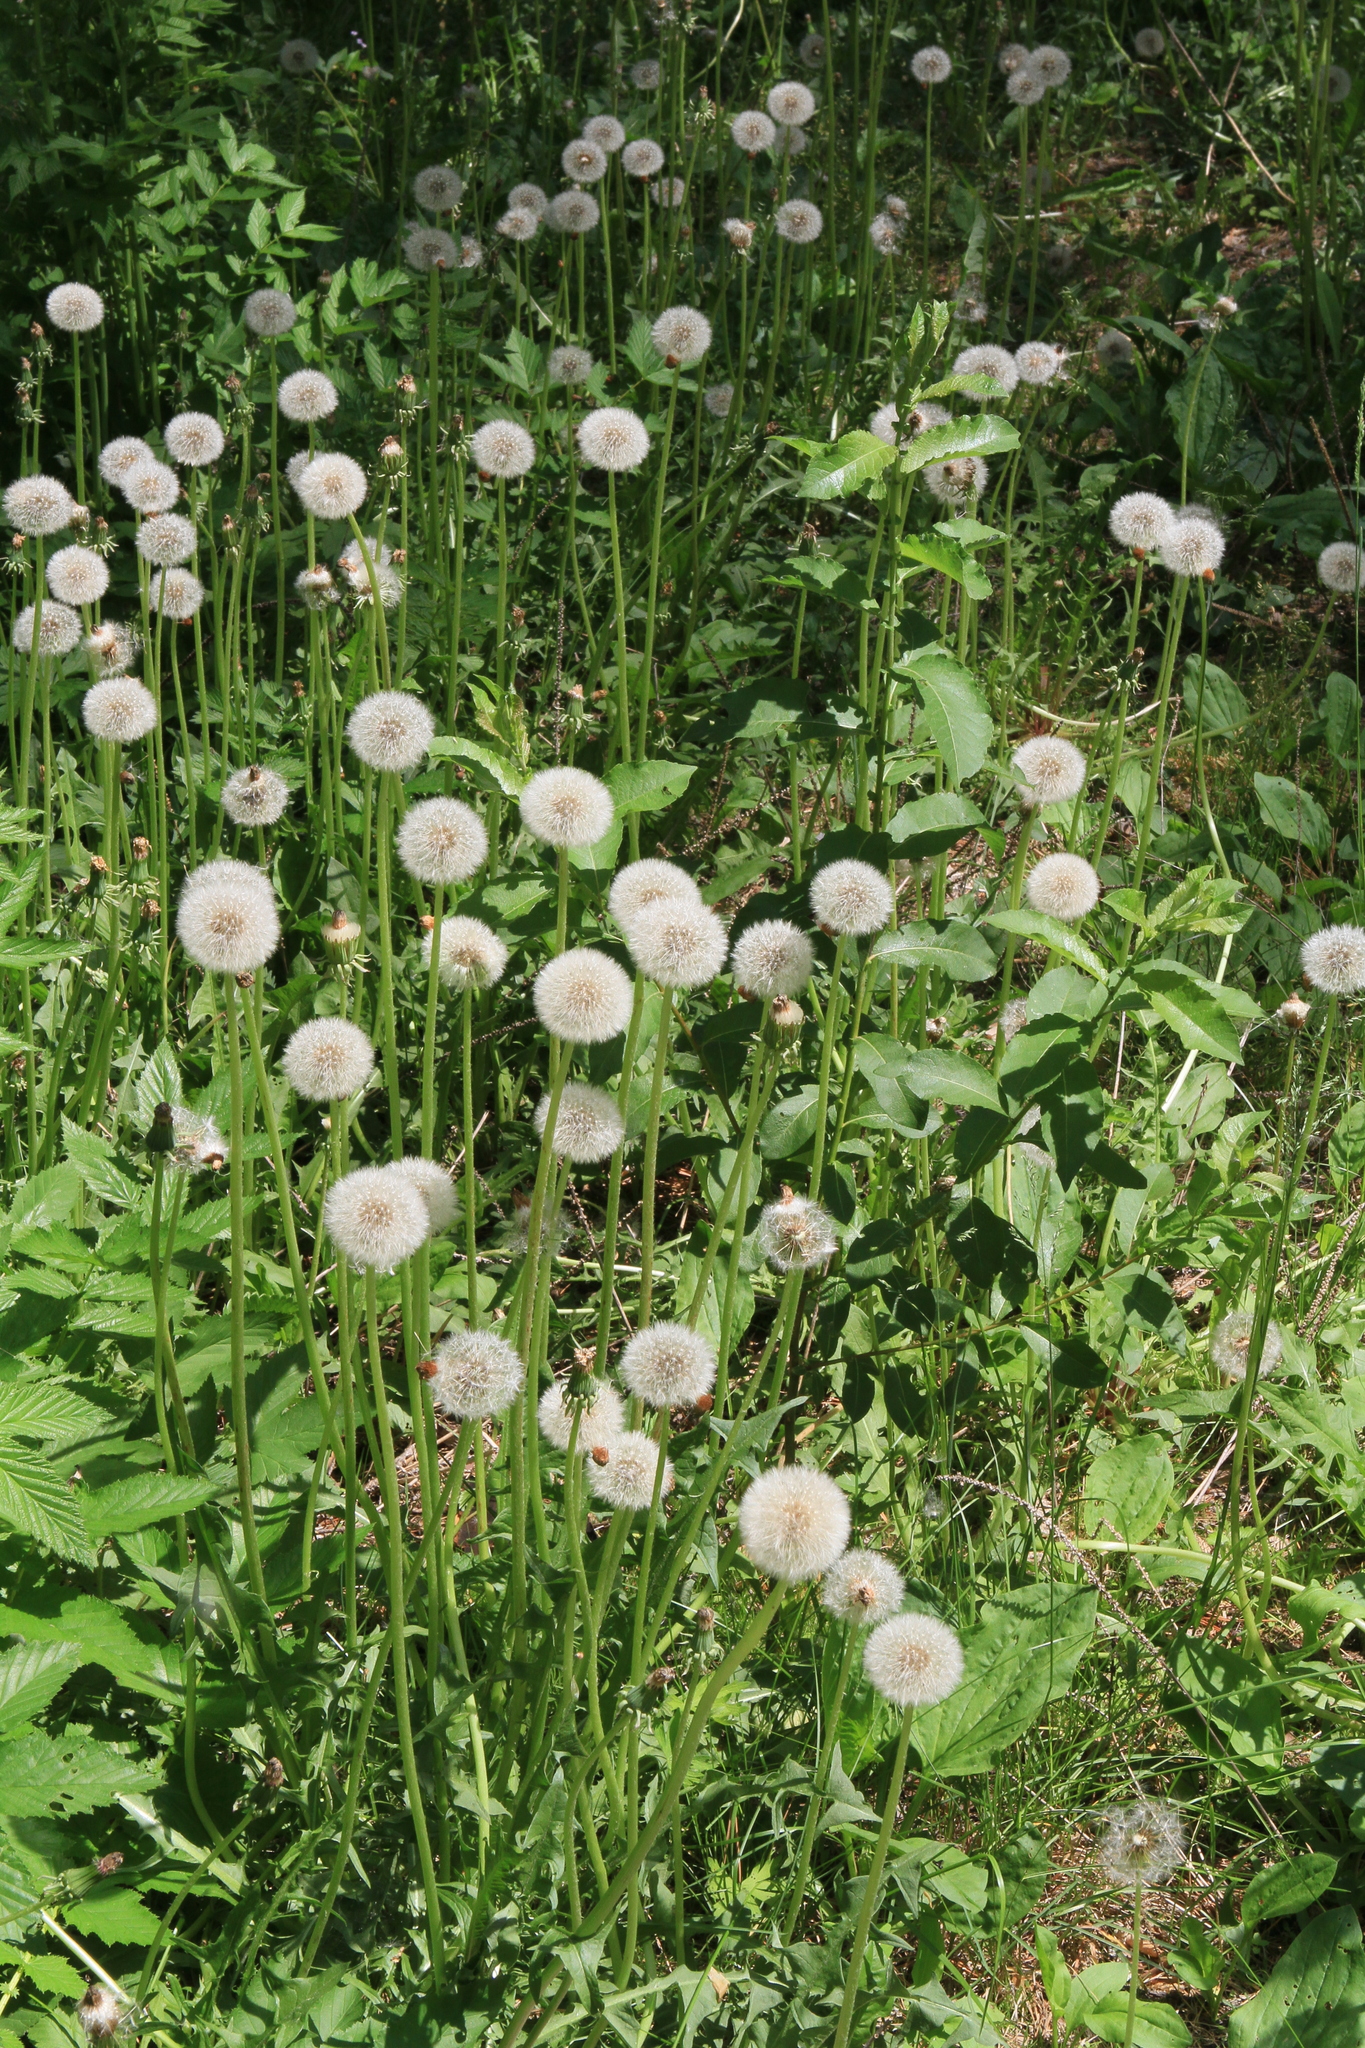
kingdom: Plantae
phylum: Tracheophyta
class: Magnoliopsida
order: Asterales
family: Asteraceae
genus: Taraxacum
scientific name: Taraxacum officinale
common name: Common dandelion
